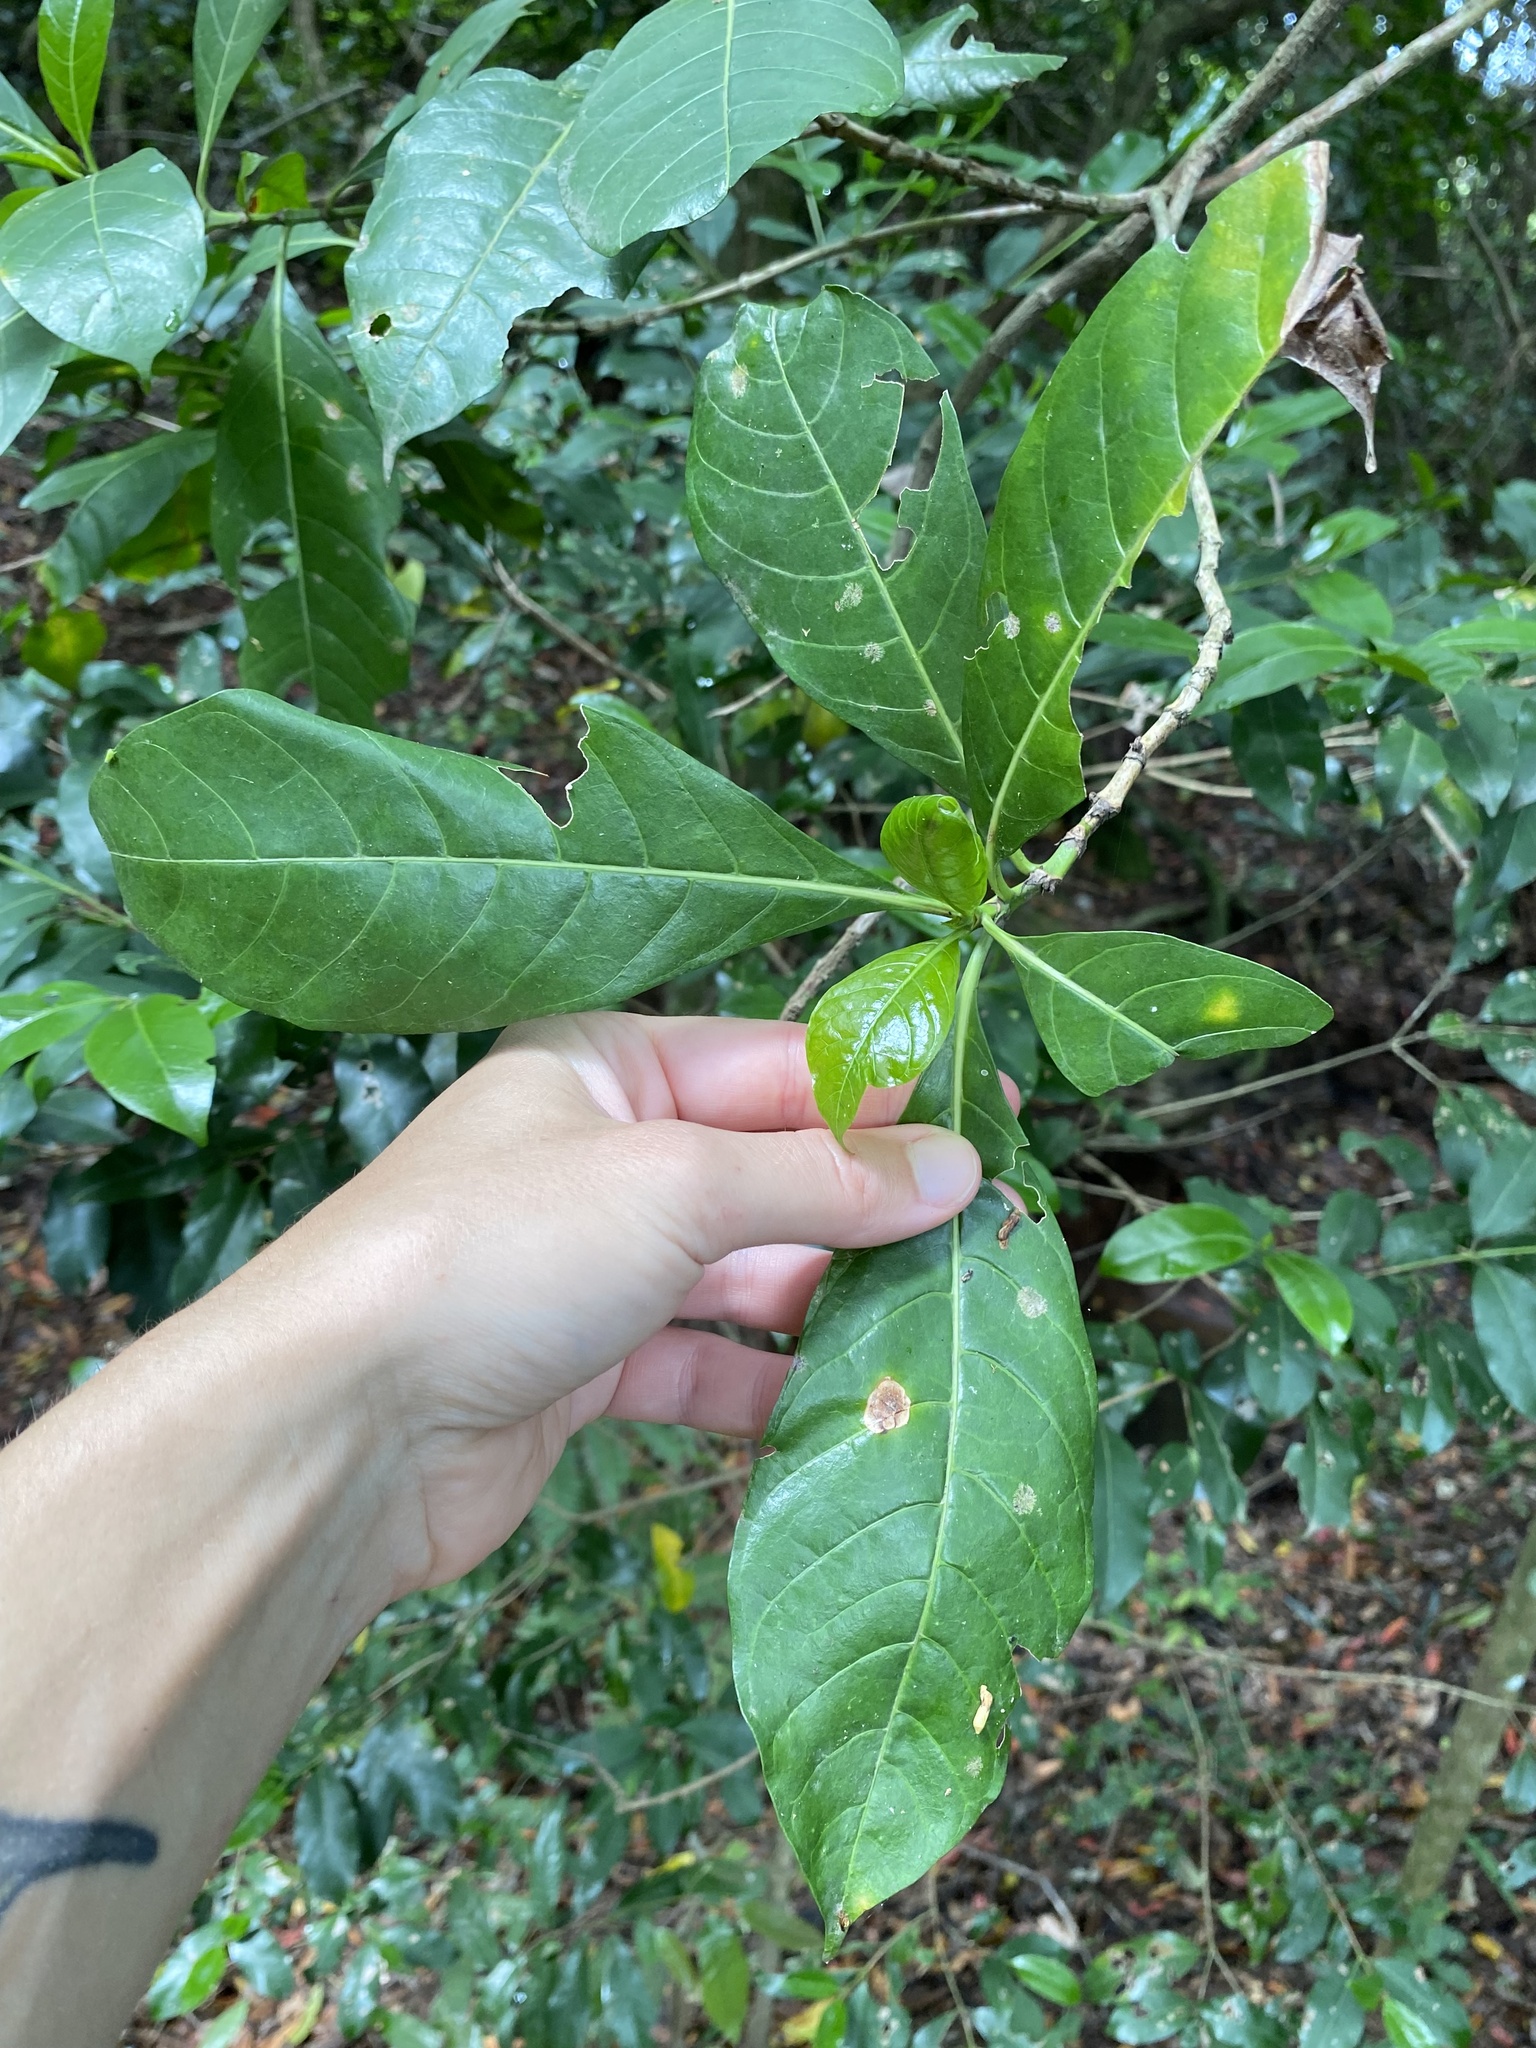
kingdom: Plantae
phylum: Tracheophyta
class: Magnoliopsida
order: Gentianales
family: Rubiaceae
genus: Tarenna
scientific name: Tarenna pavettoides
